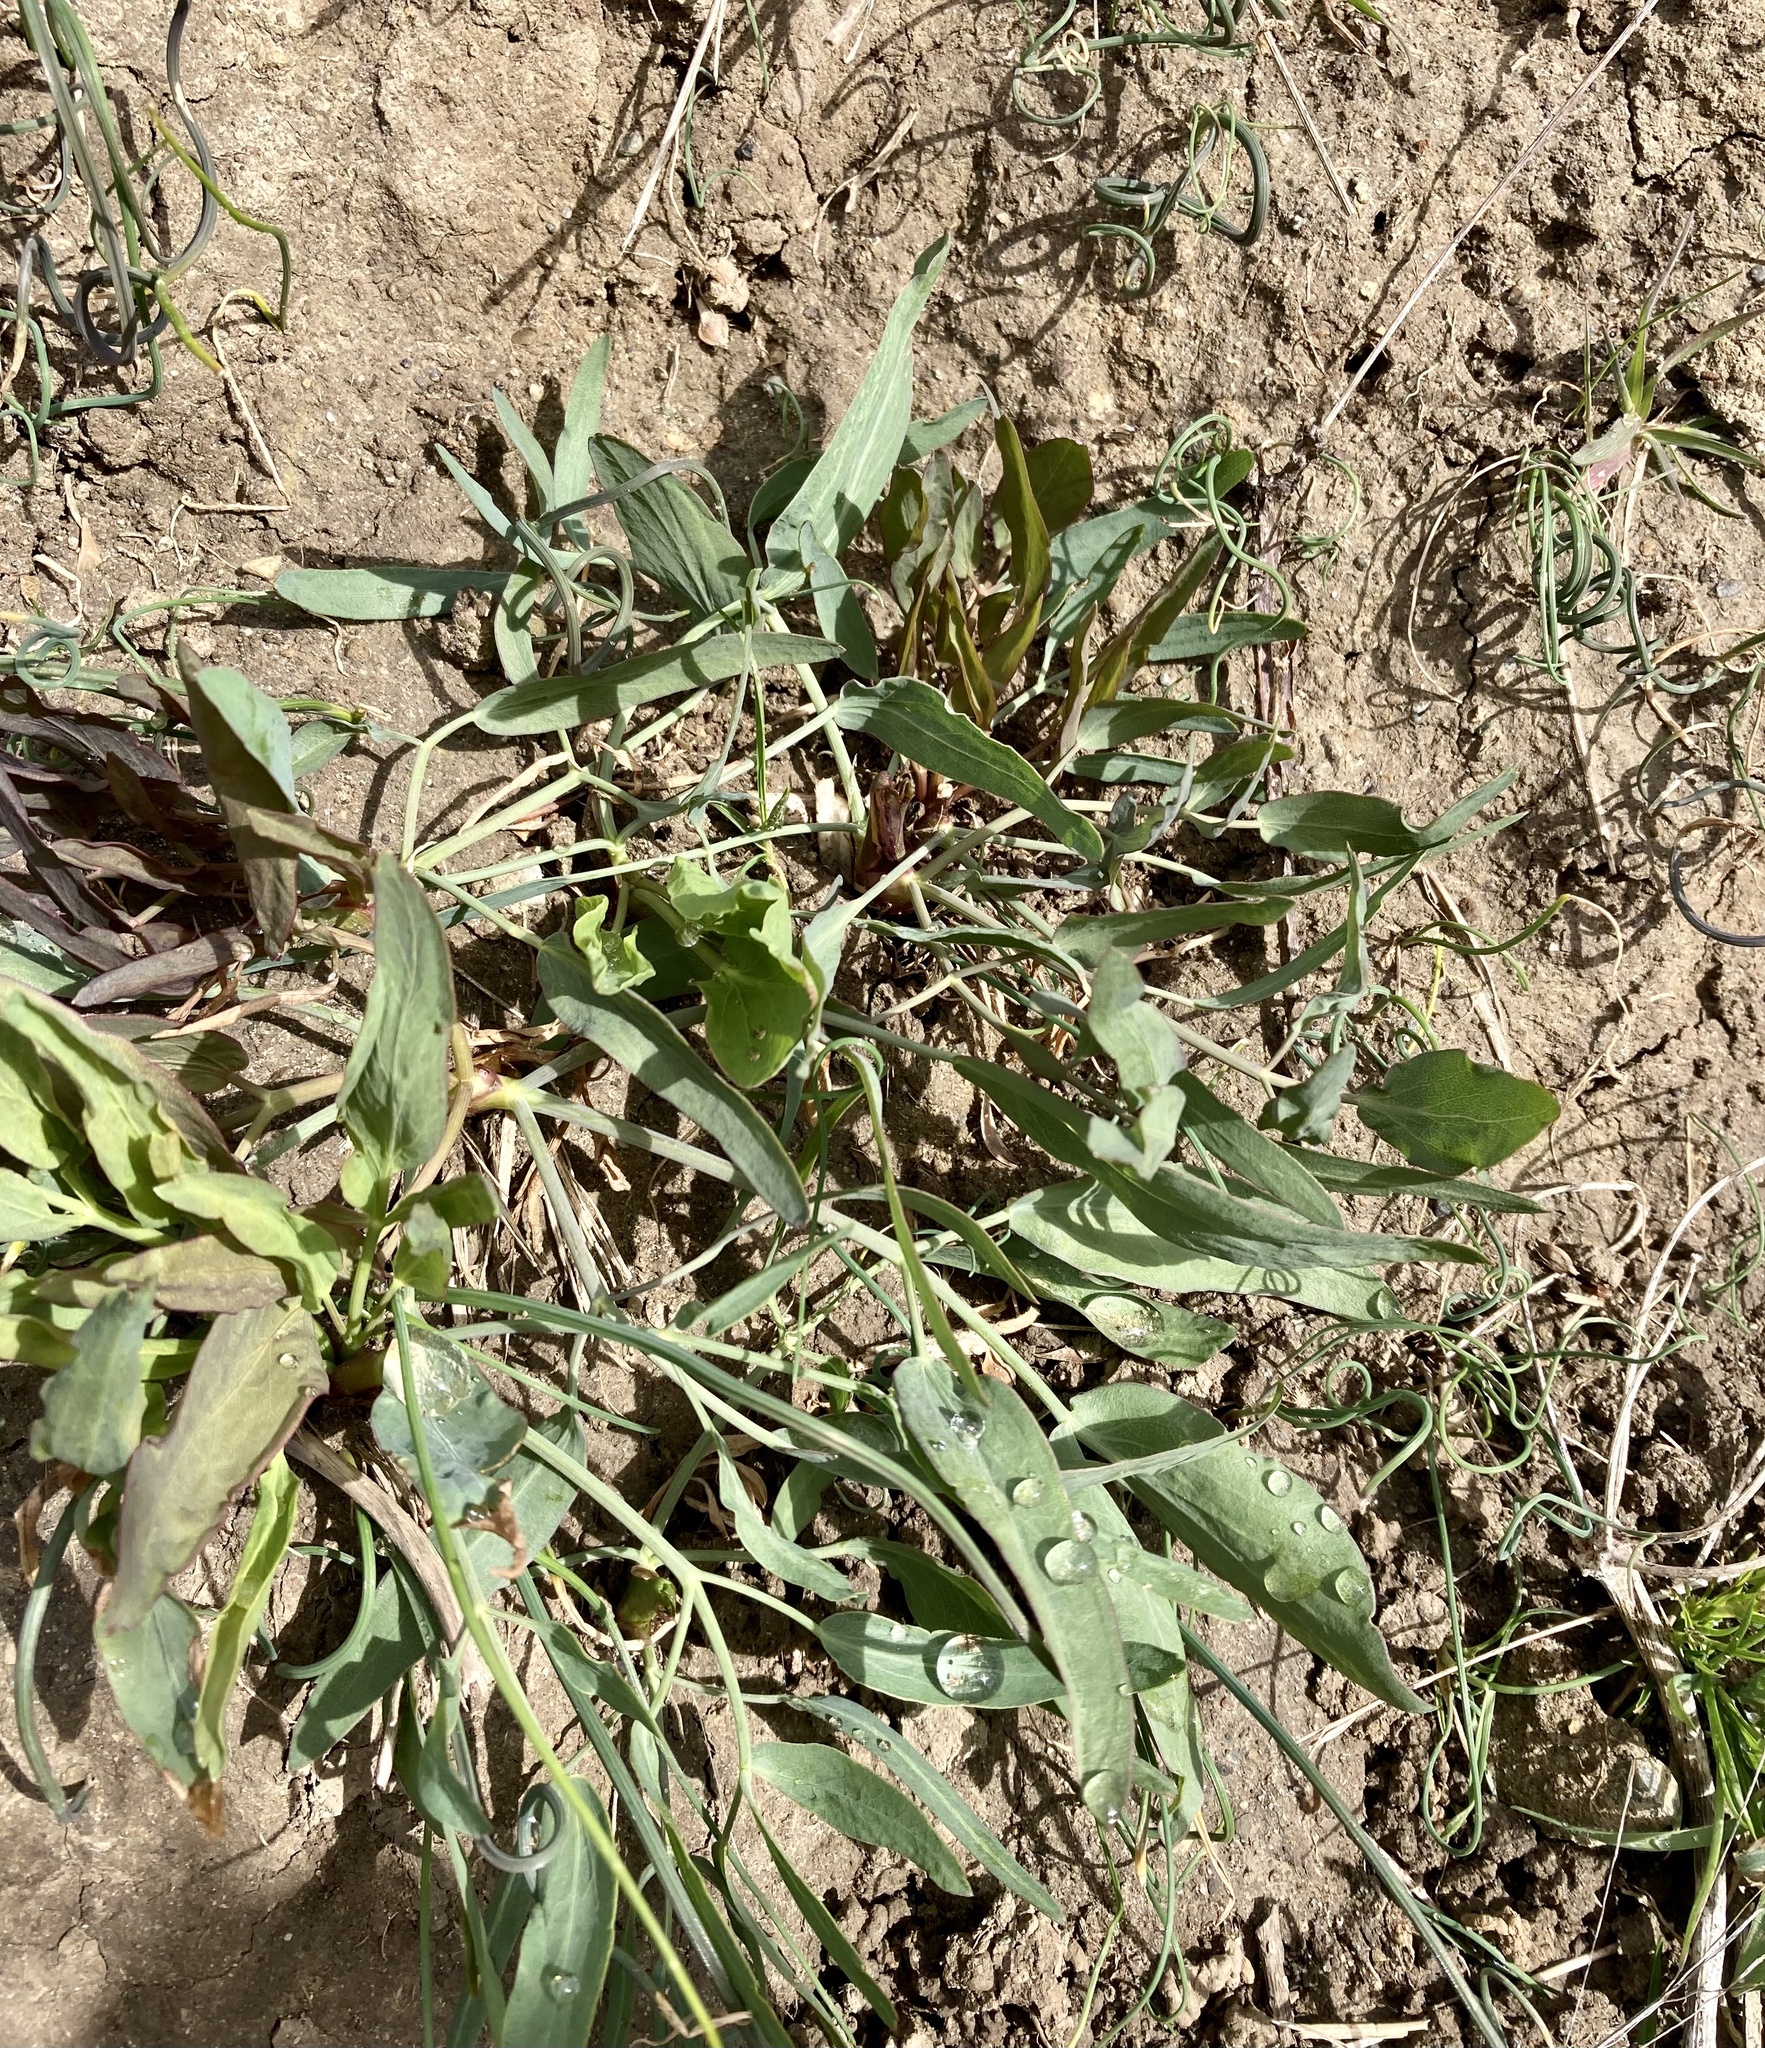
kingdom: Plantae
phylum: Tracheophyta
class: Magnoliopsida
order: Apiales
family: Apiaceae
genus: Lomatium
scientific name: Lomatium nudicaule
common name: Pestle lomatium
